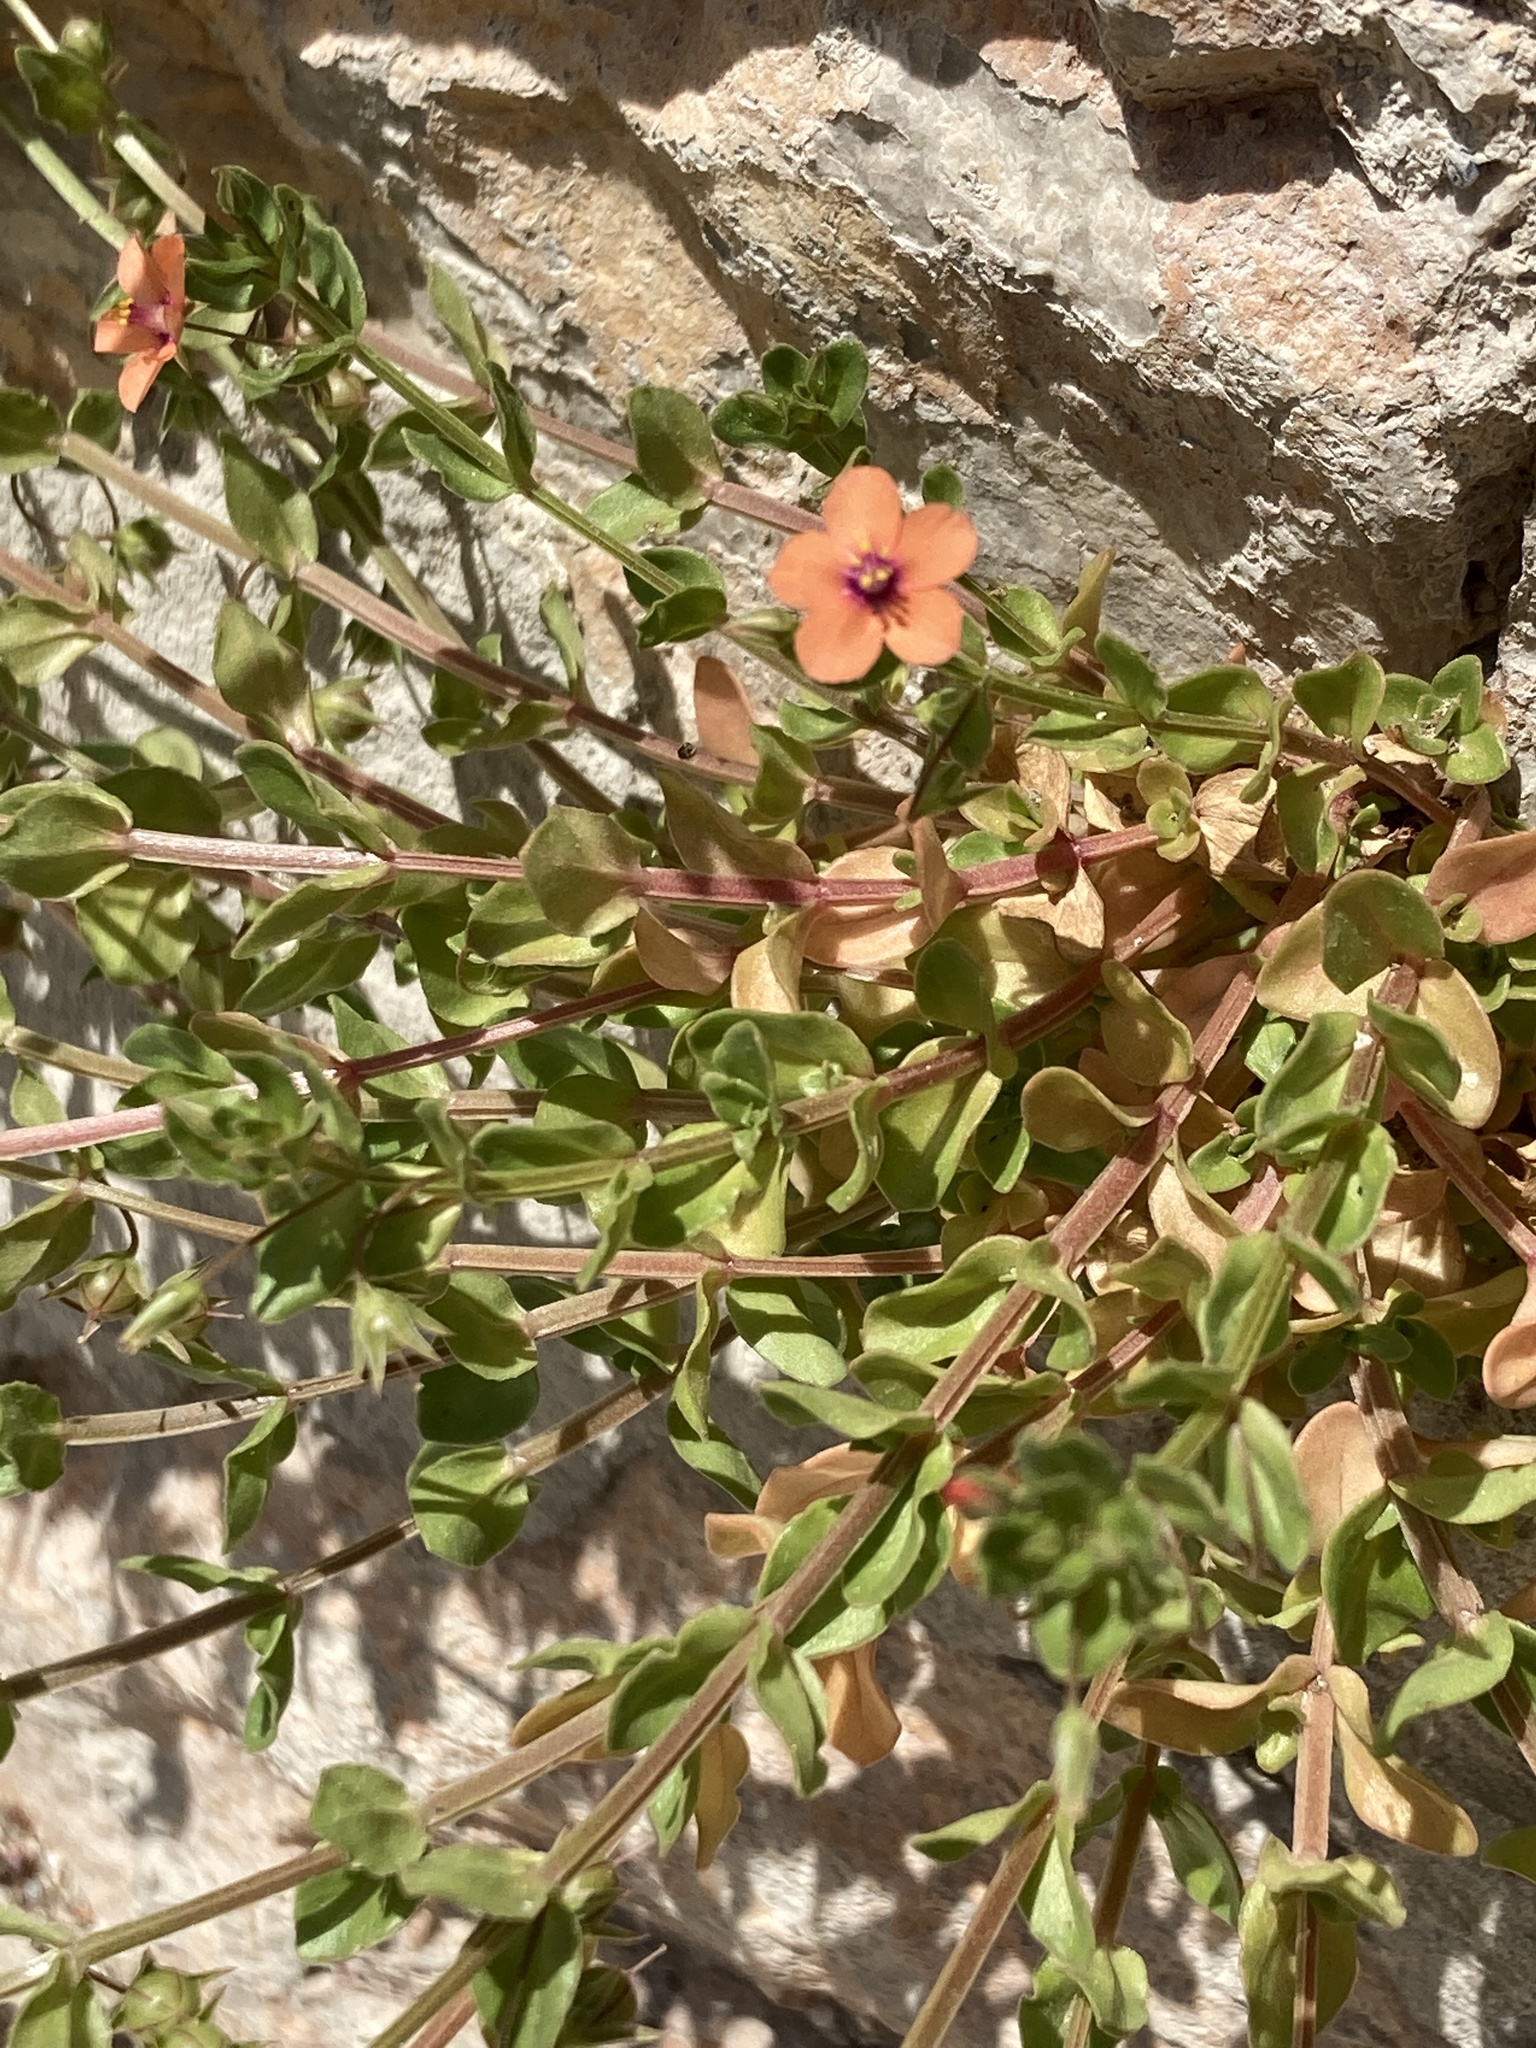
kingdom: Plantae
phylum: Tracheophyta
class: Magnoliopsida
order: Ericales
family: Primulaceae
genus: Lysimachia
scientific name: Lysimachia arvensis
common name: Scarlet pimpernel
